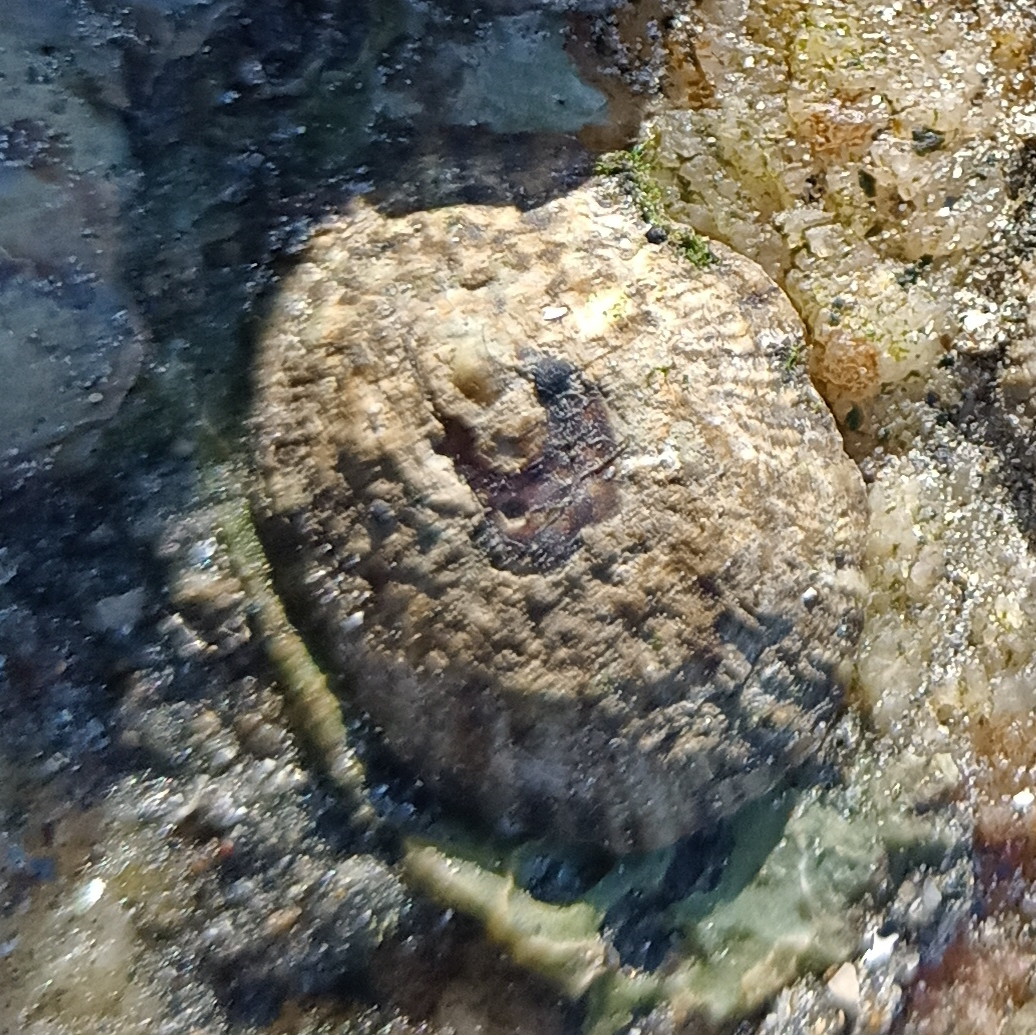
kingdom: Animalia
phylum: Mollusca
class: Gastropoda
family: Lottiidae
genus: Lottia
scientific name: Lottia subrugosa
